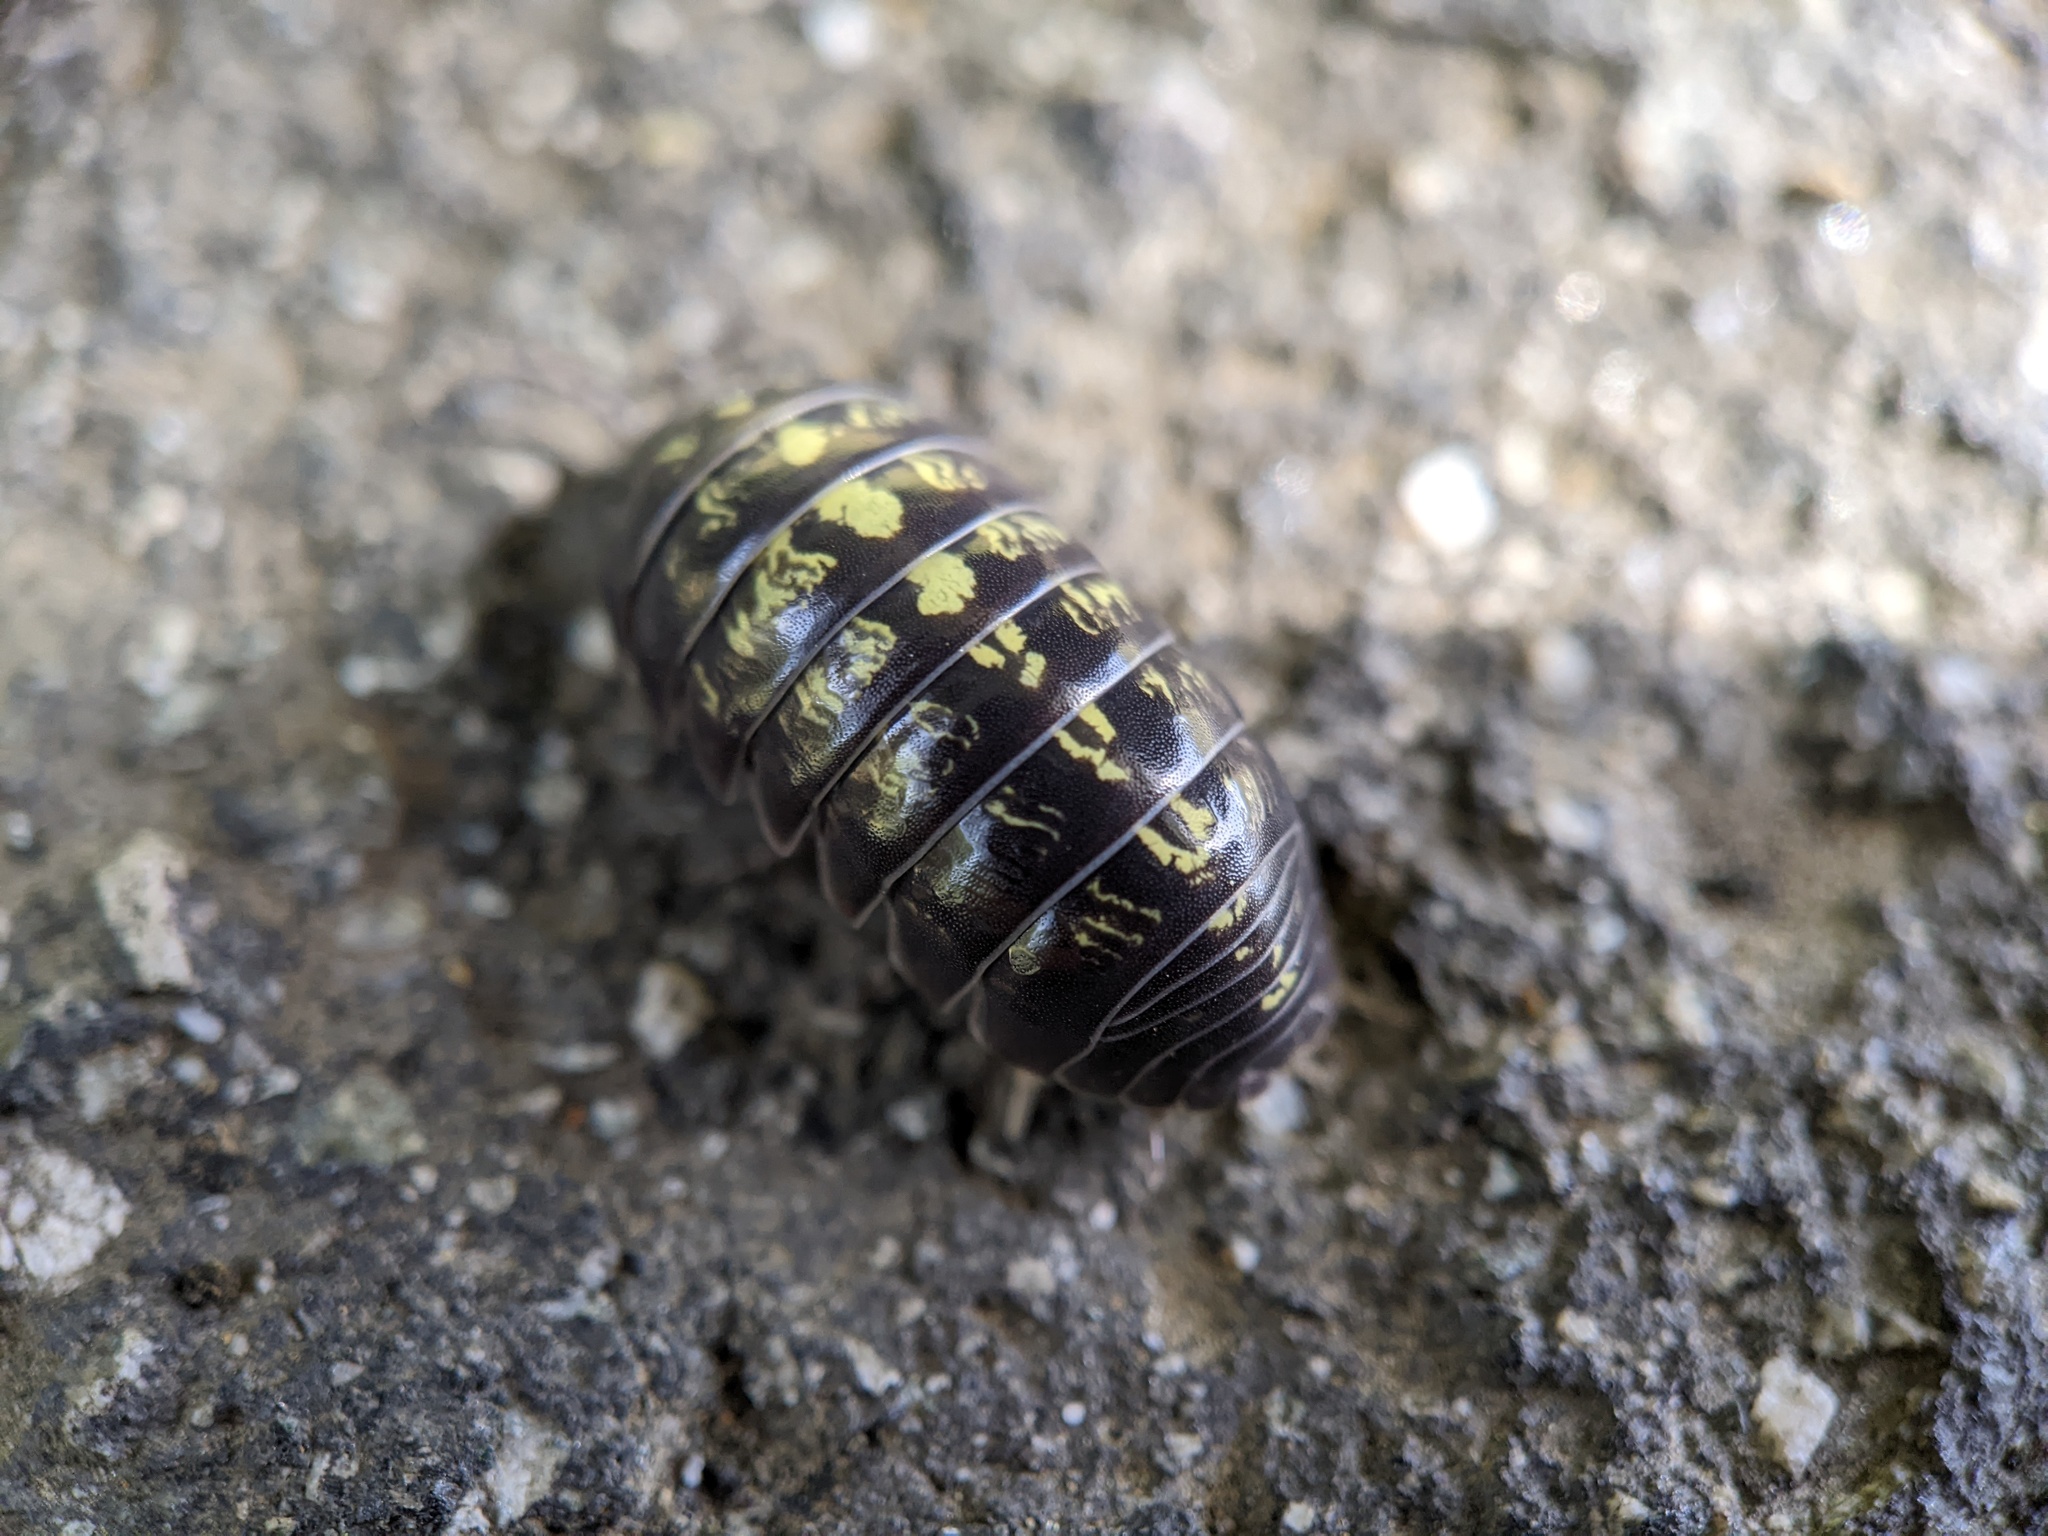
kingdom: Animalia
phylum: Arthropoda
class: Malacostraca
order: Isopoda
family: Armadillidiidae
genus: Armadillidium
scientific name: Armadillidium vulgare
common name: Common pill woodlouse
